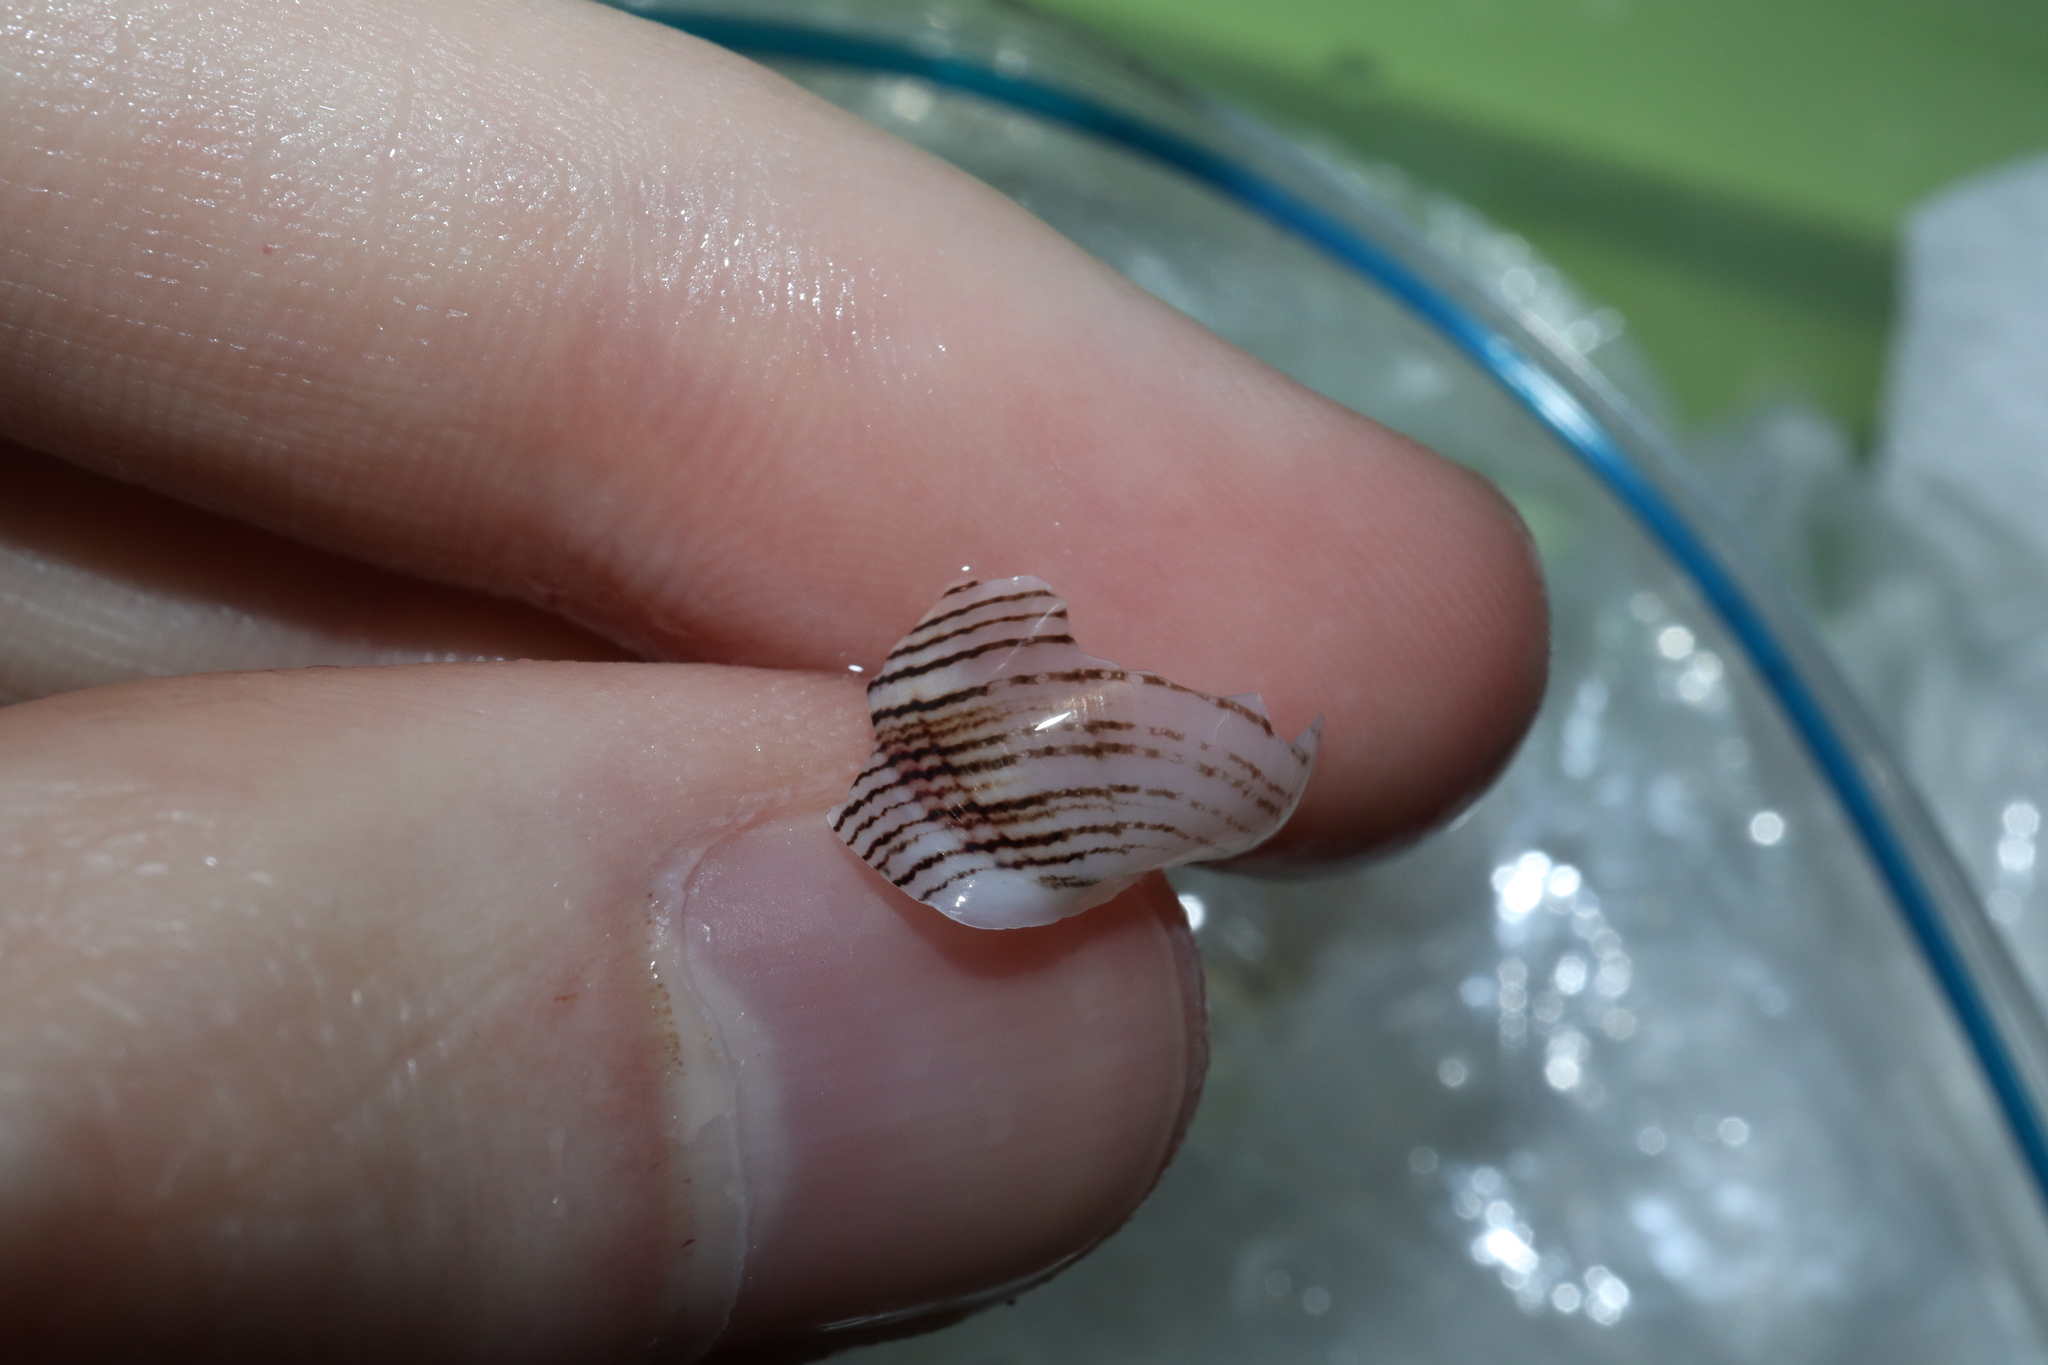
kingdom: Animalia
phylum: Mollusca
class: Gastropoda
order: Cephalaspidea
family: Aplustridae
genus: Hydatina
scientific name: Hydatina physis
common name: Brown-line paperbubble
